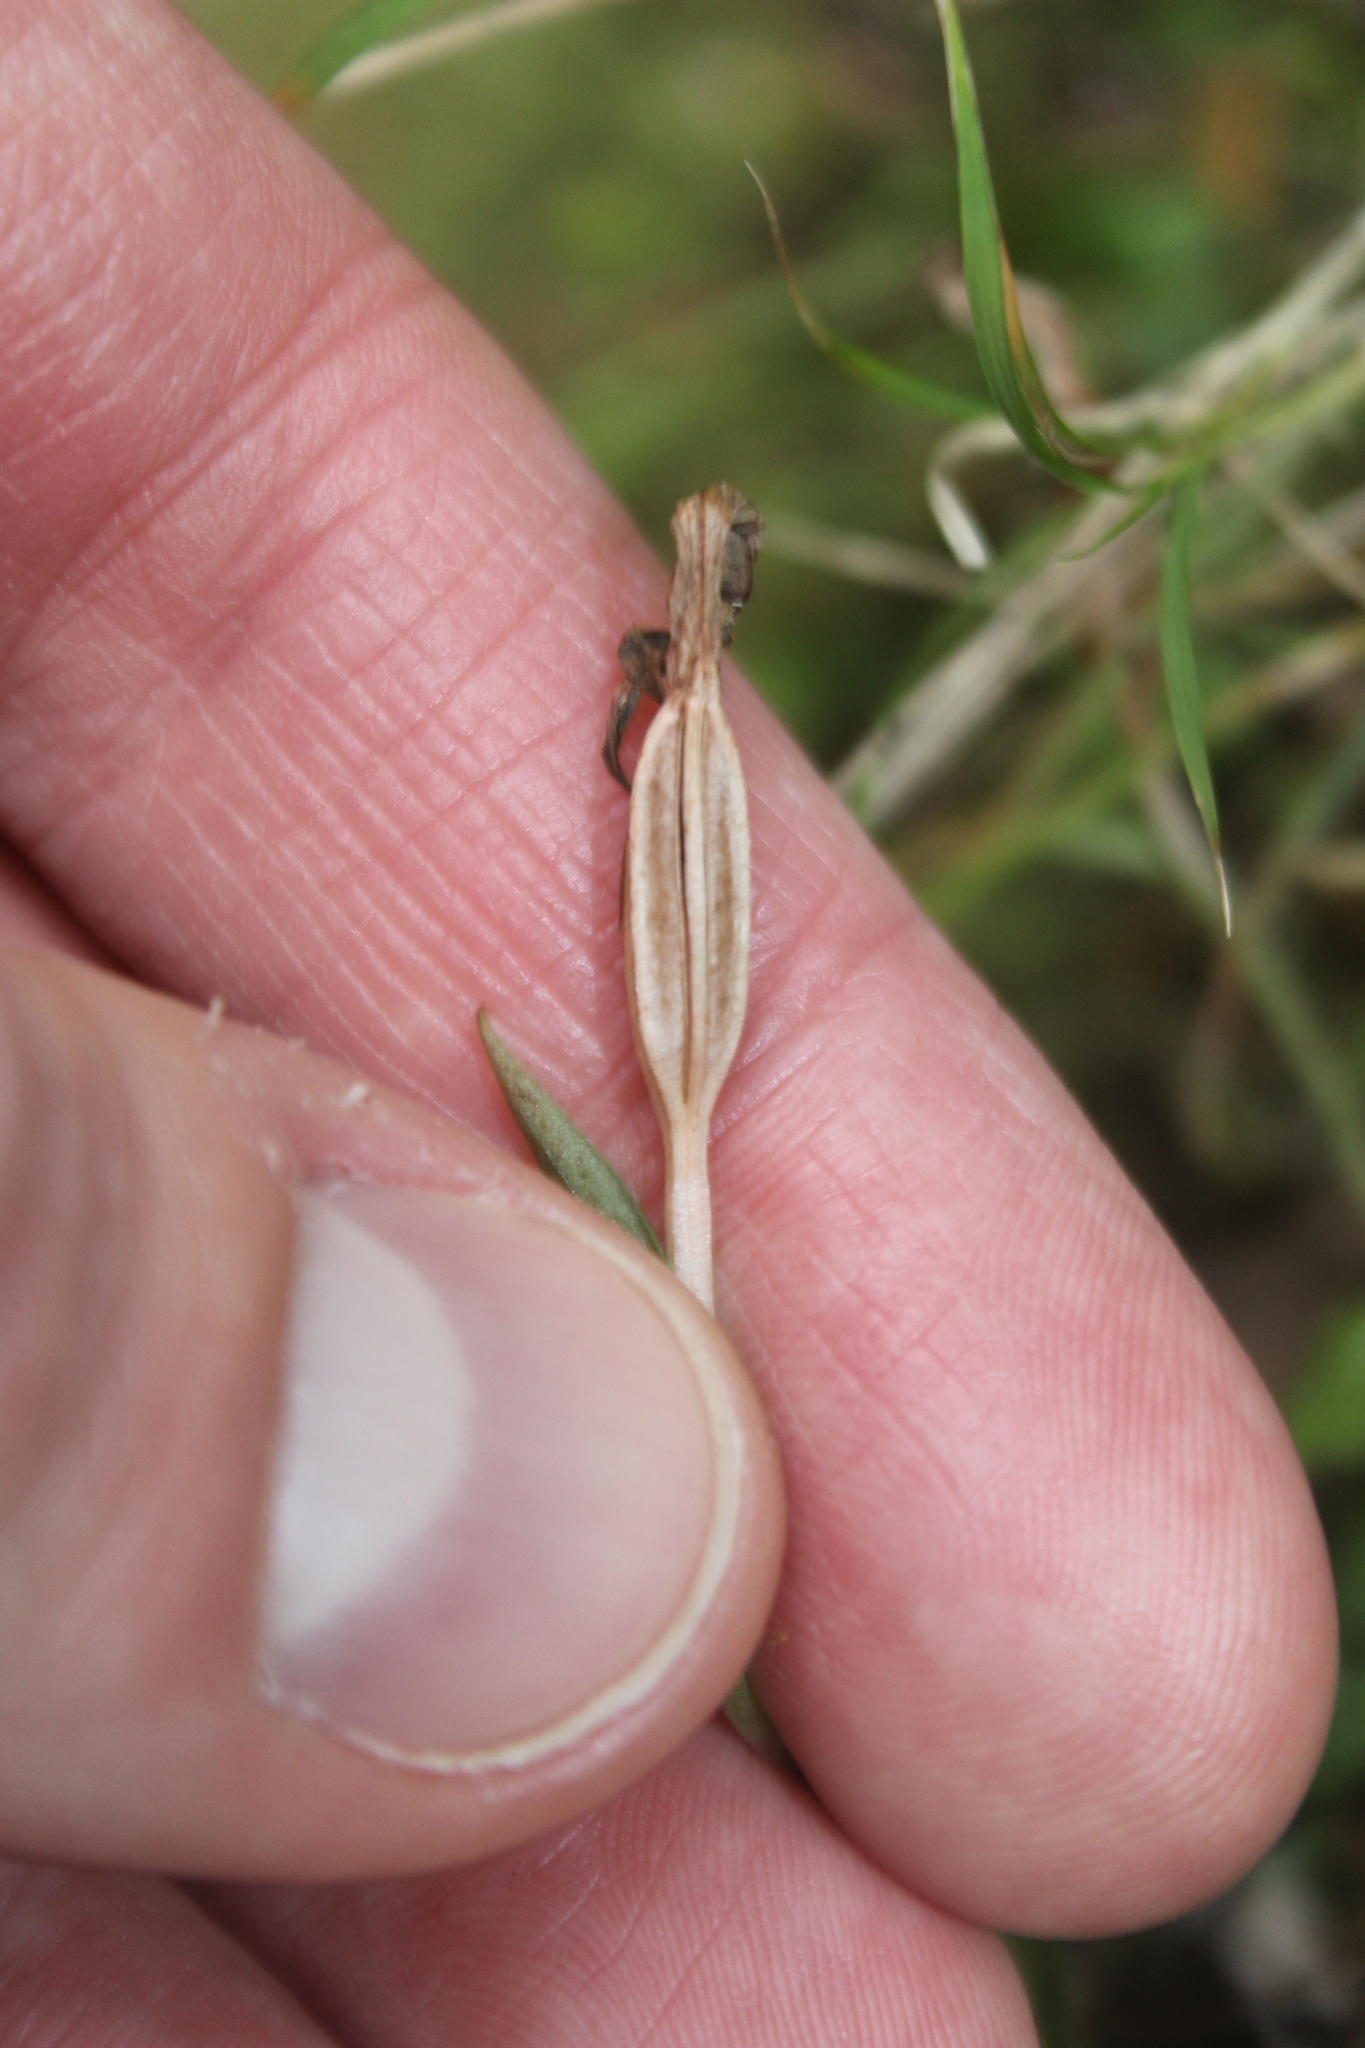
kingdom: Plantae
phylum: Tracheophyta
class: Liliopsida
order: Asparagales
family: Orchidaceae
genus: Pterostylis
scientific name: Pterostylis alobula
